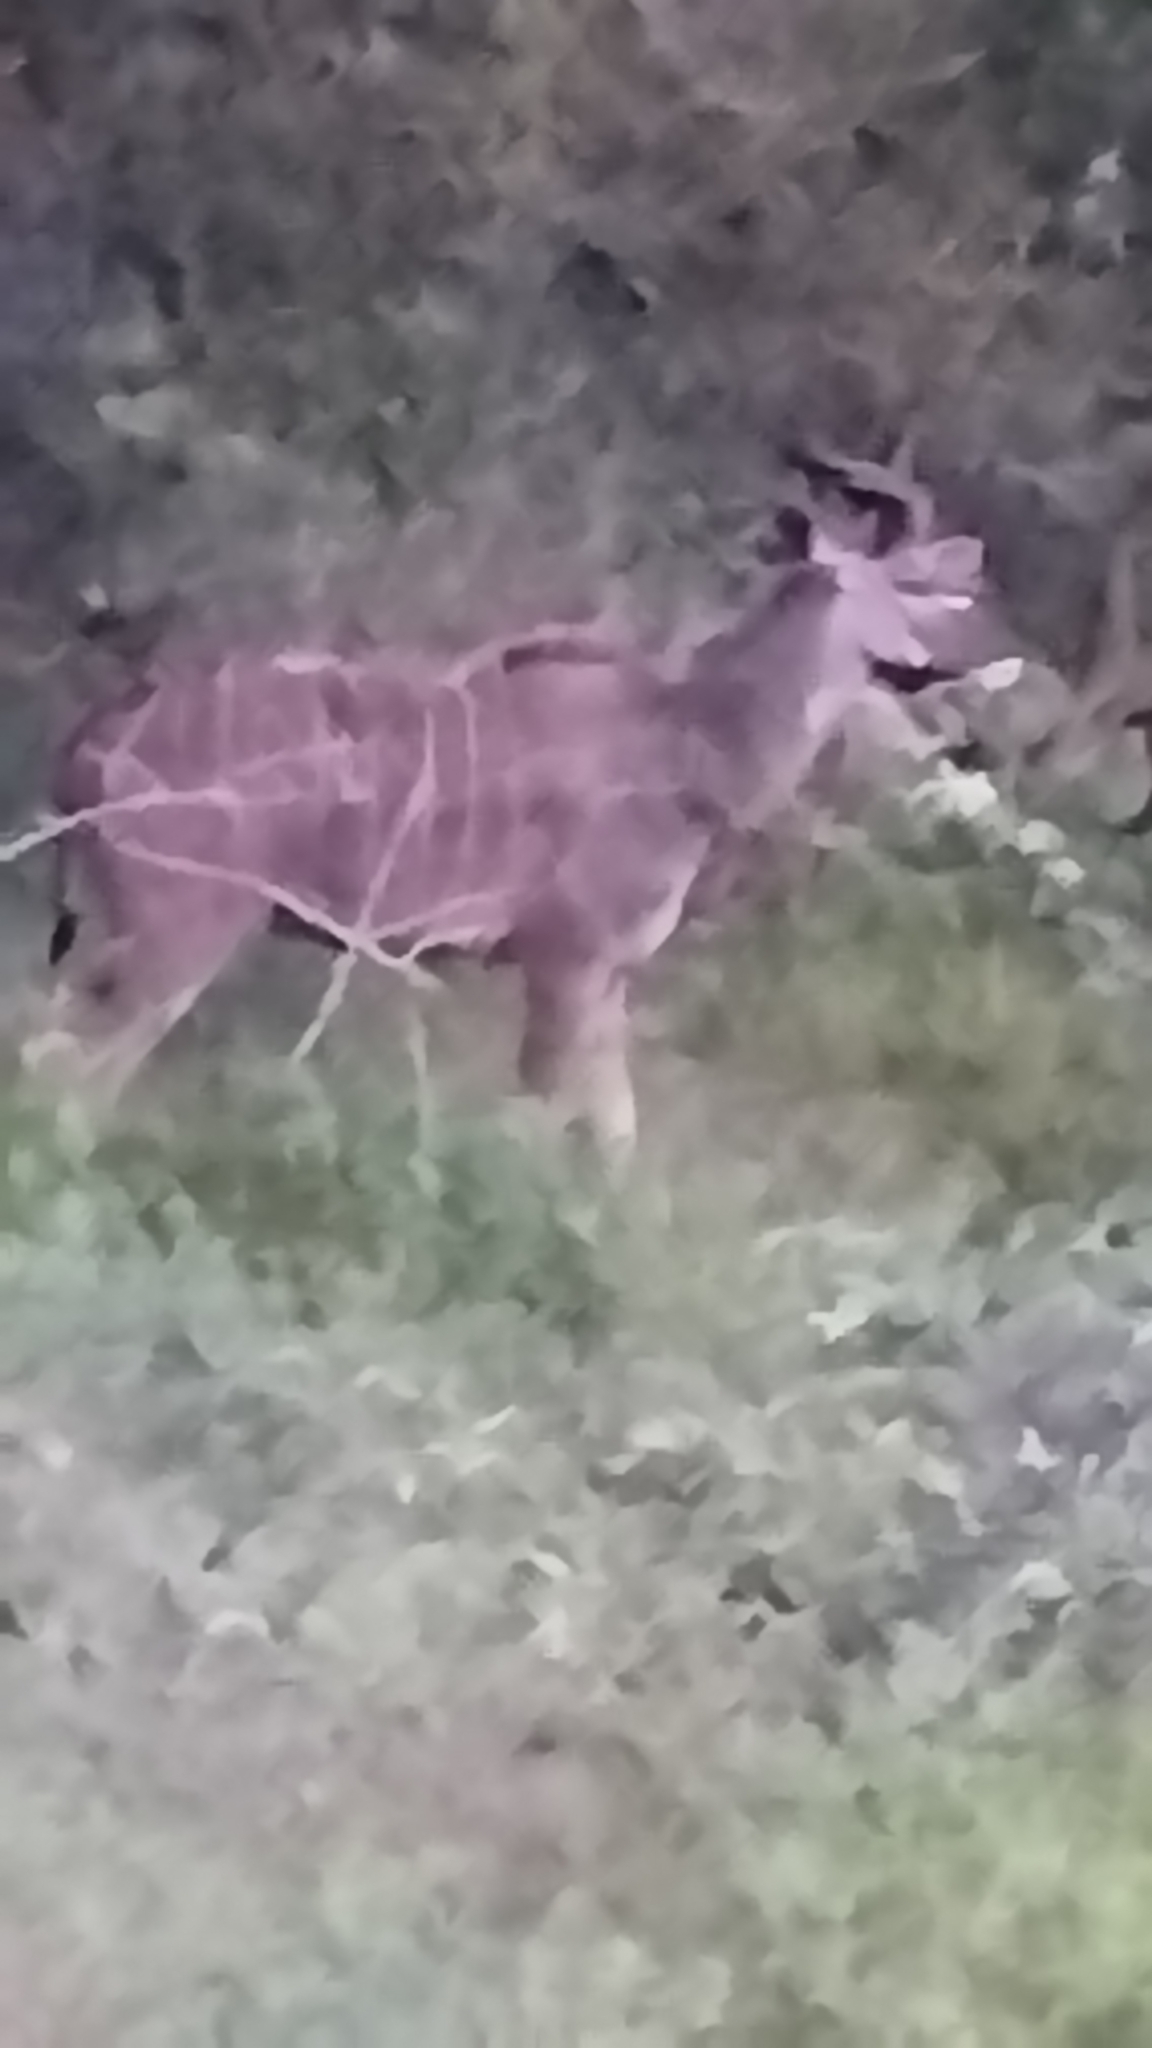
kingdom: Animalia
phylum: Chordata
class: Mammalia
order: Artiodactyla
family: Bovidae
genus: Tragelaphus
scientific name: Tragelaphus strepsiceros
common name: Greater kudu
